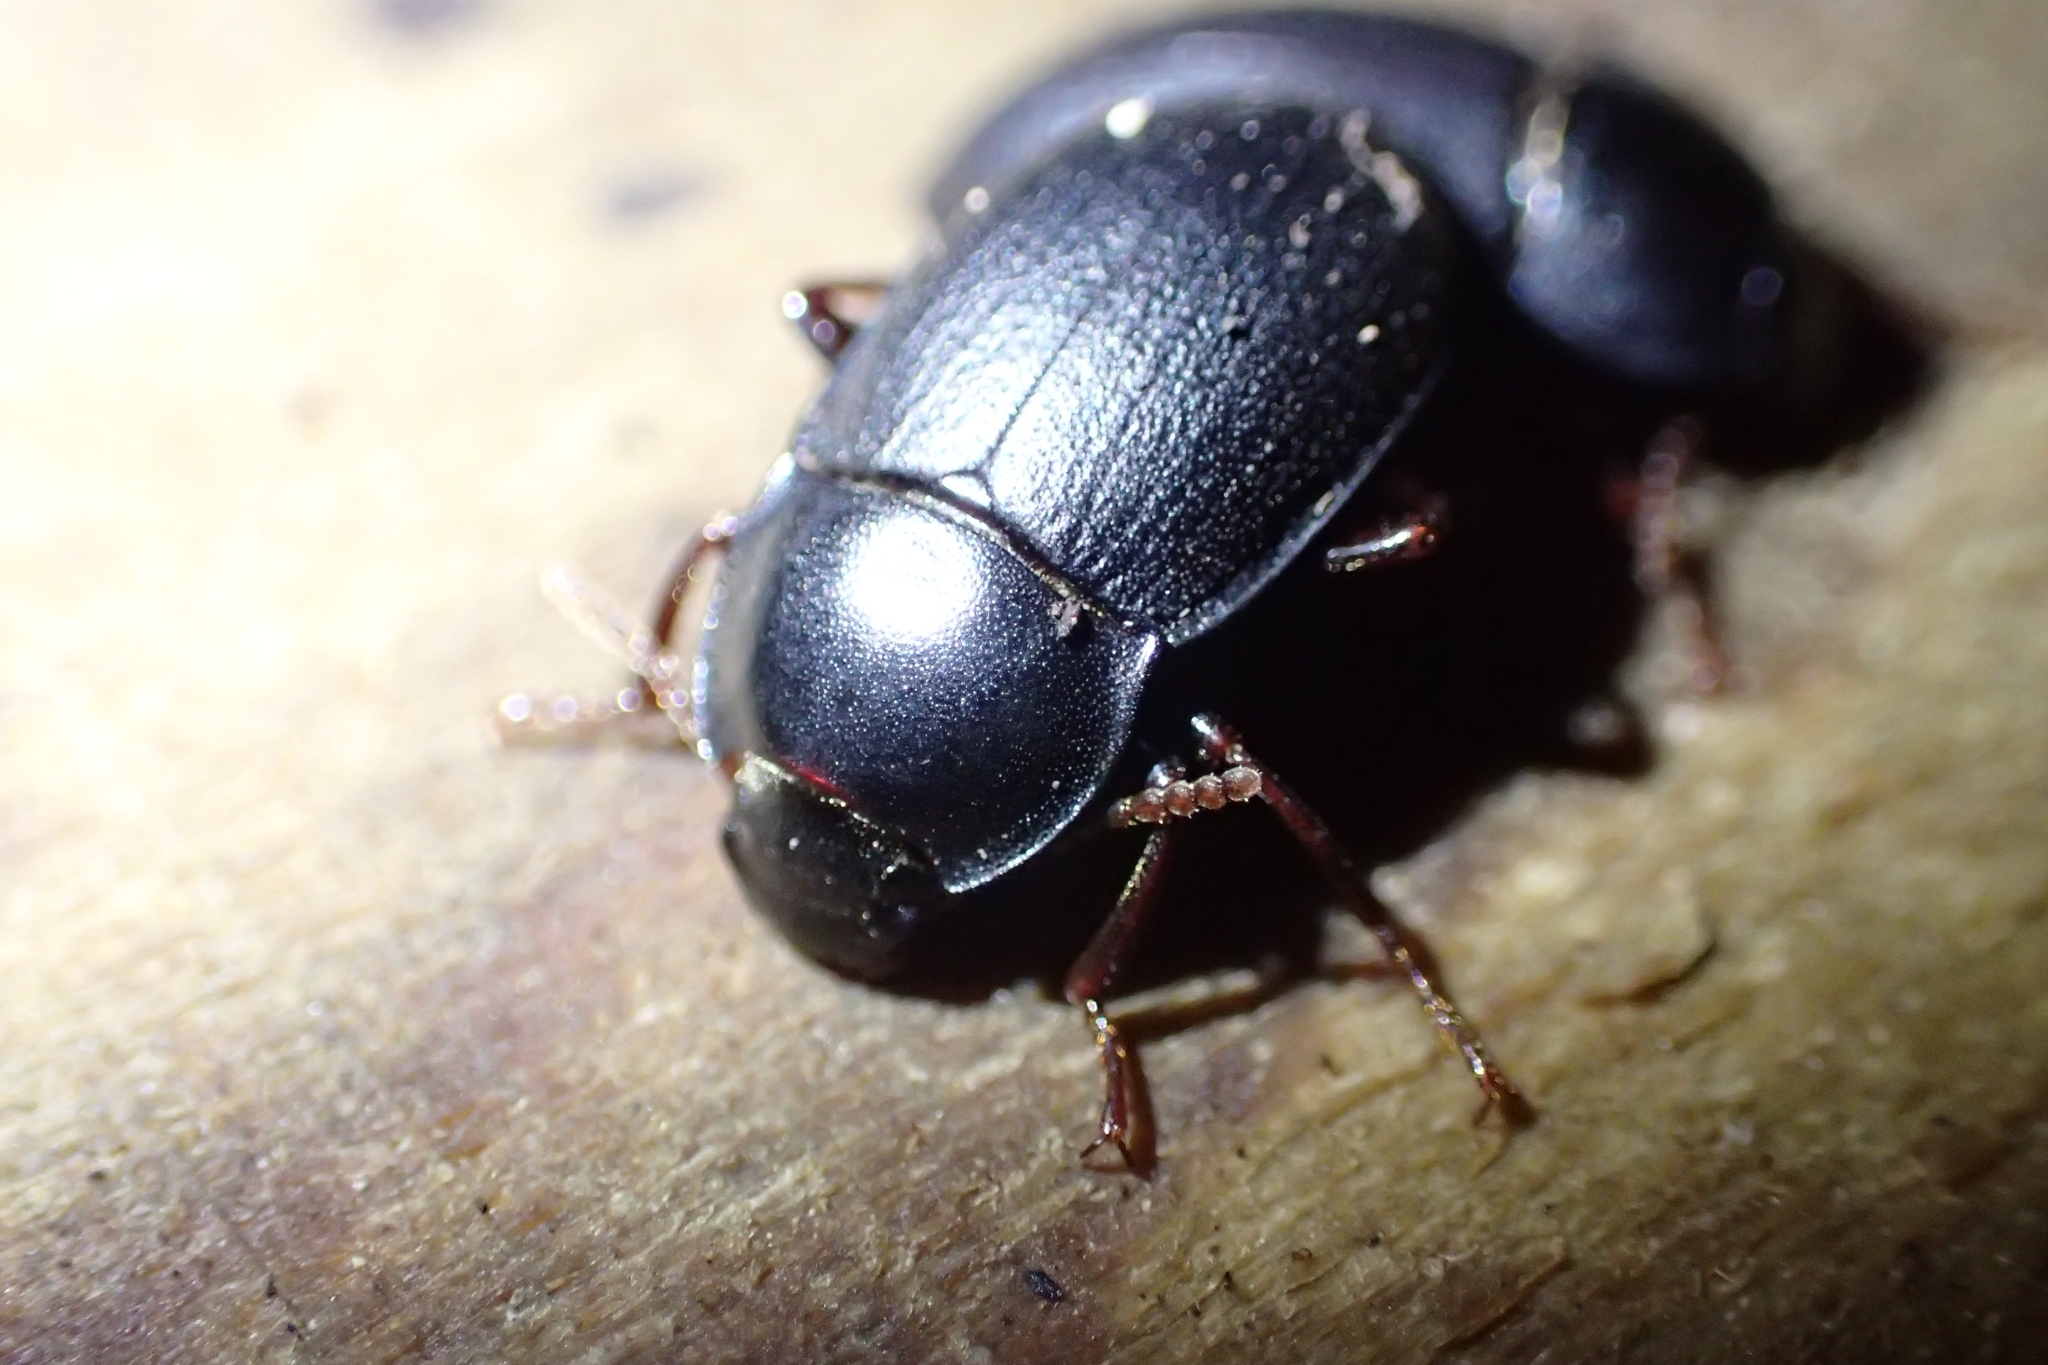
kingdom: Animalia
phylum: Arthropoda
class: Insecta
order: Coleoptera
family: Tenebrionidae
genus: Mimopeus
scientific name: Mimopeus
